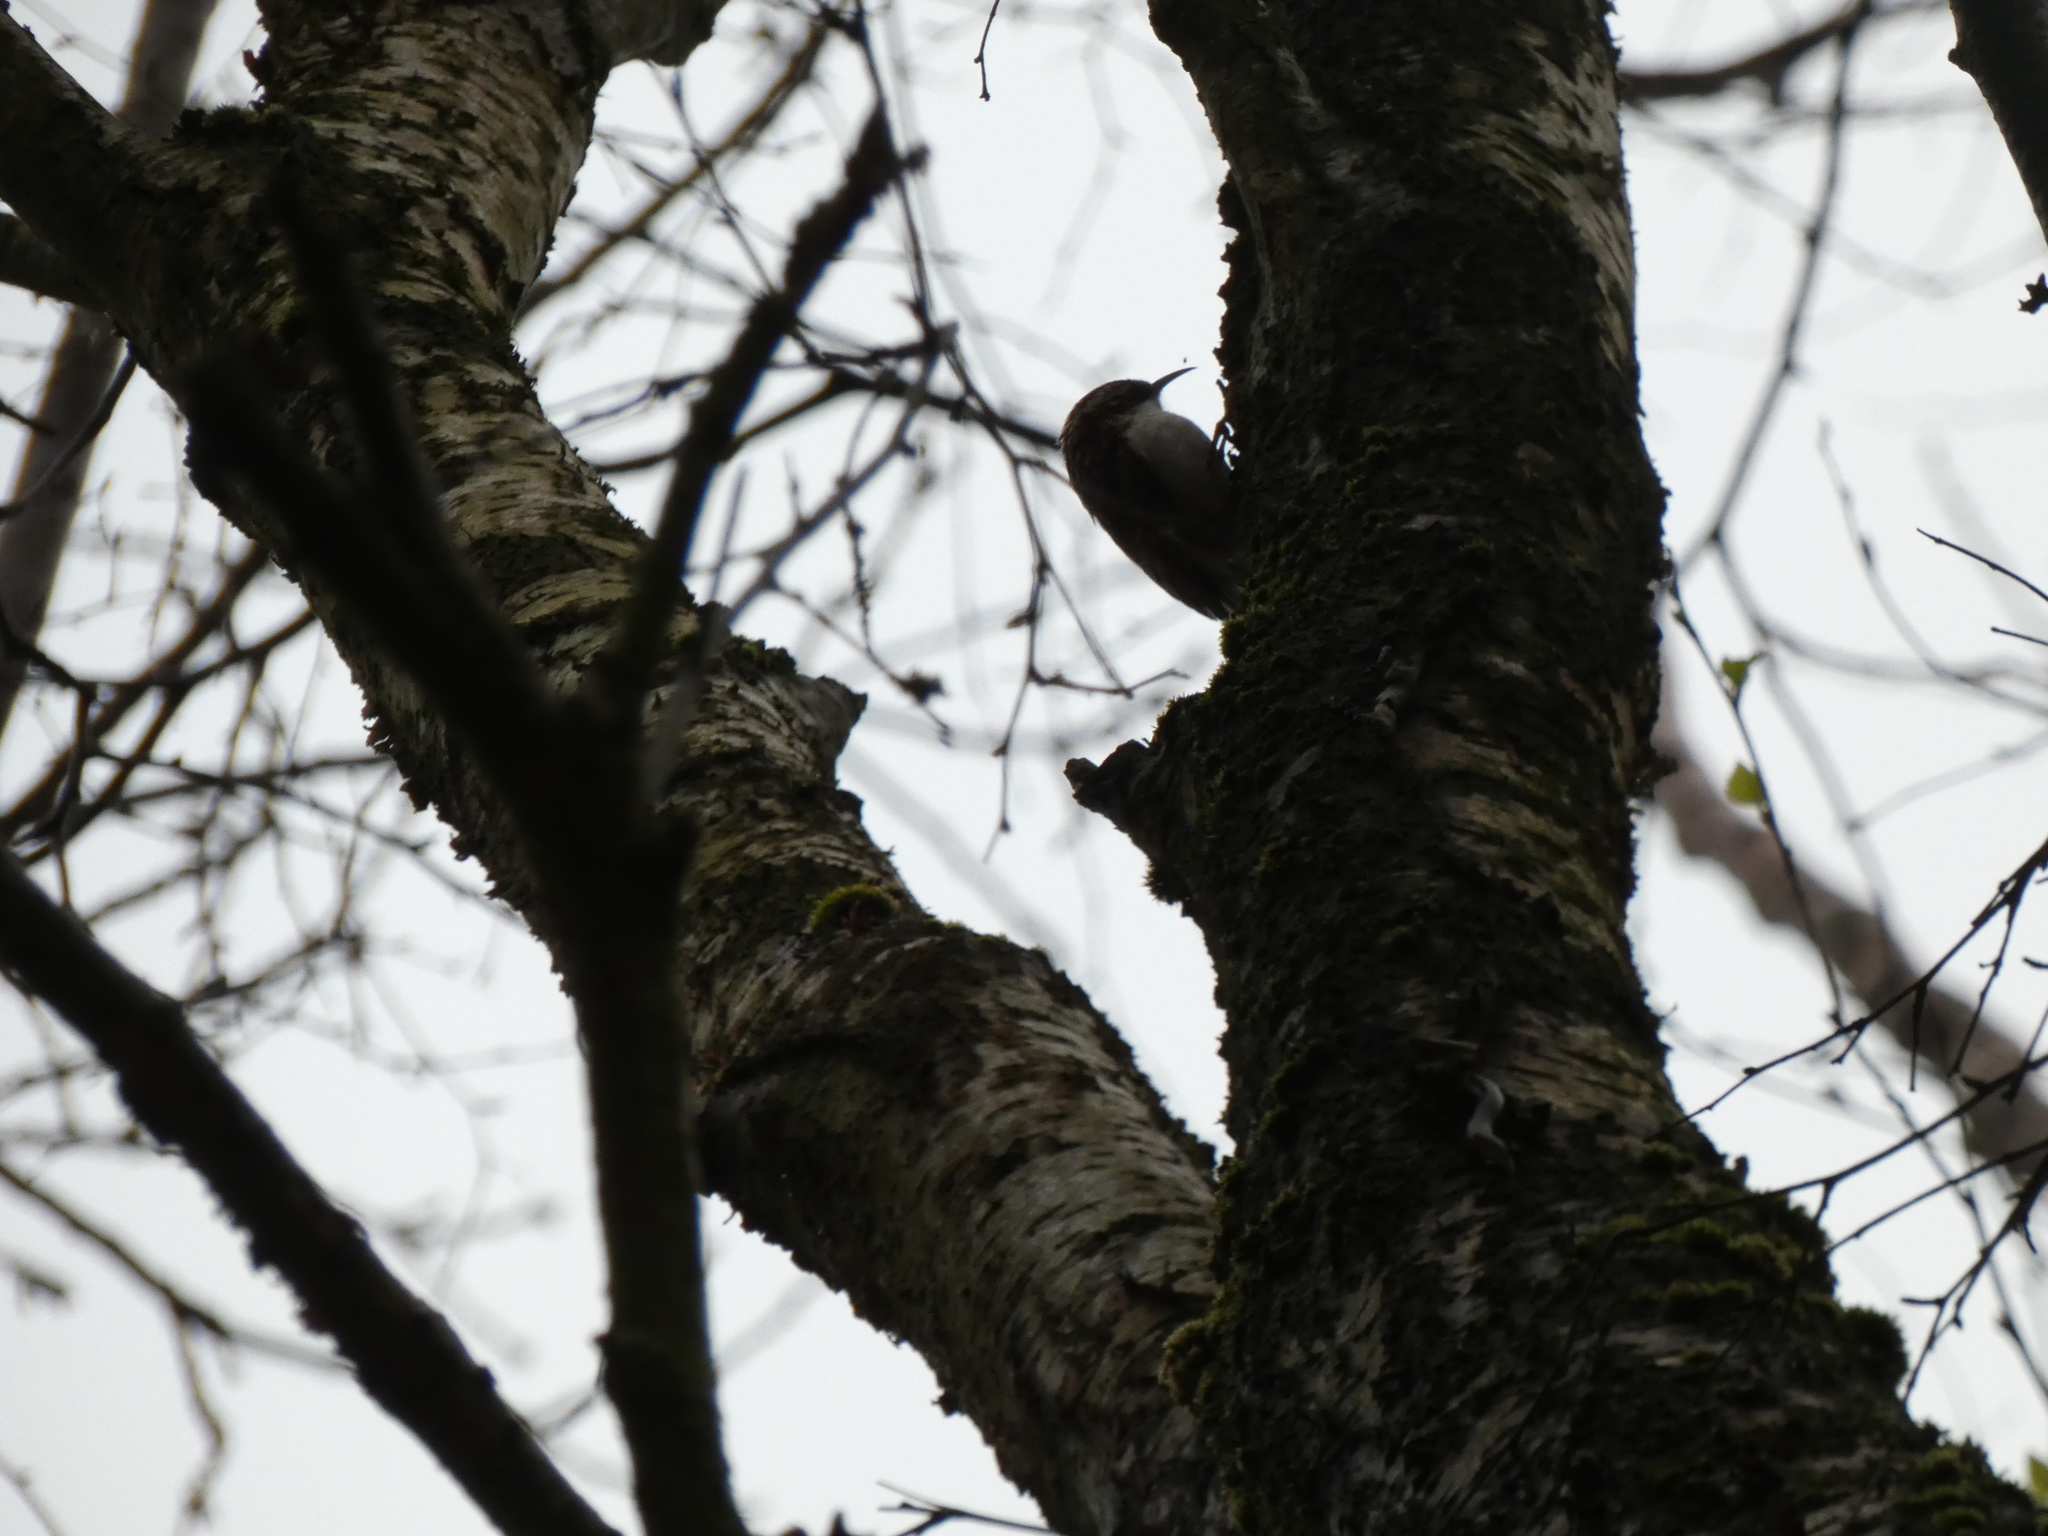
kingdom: Animalia
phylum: Chordata
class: Aves
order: Passeriformes
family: Certhiidae
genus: Certhia
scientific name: Certhia familiaris
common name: Eurasian treecreeper
